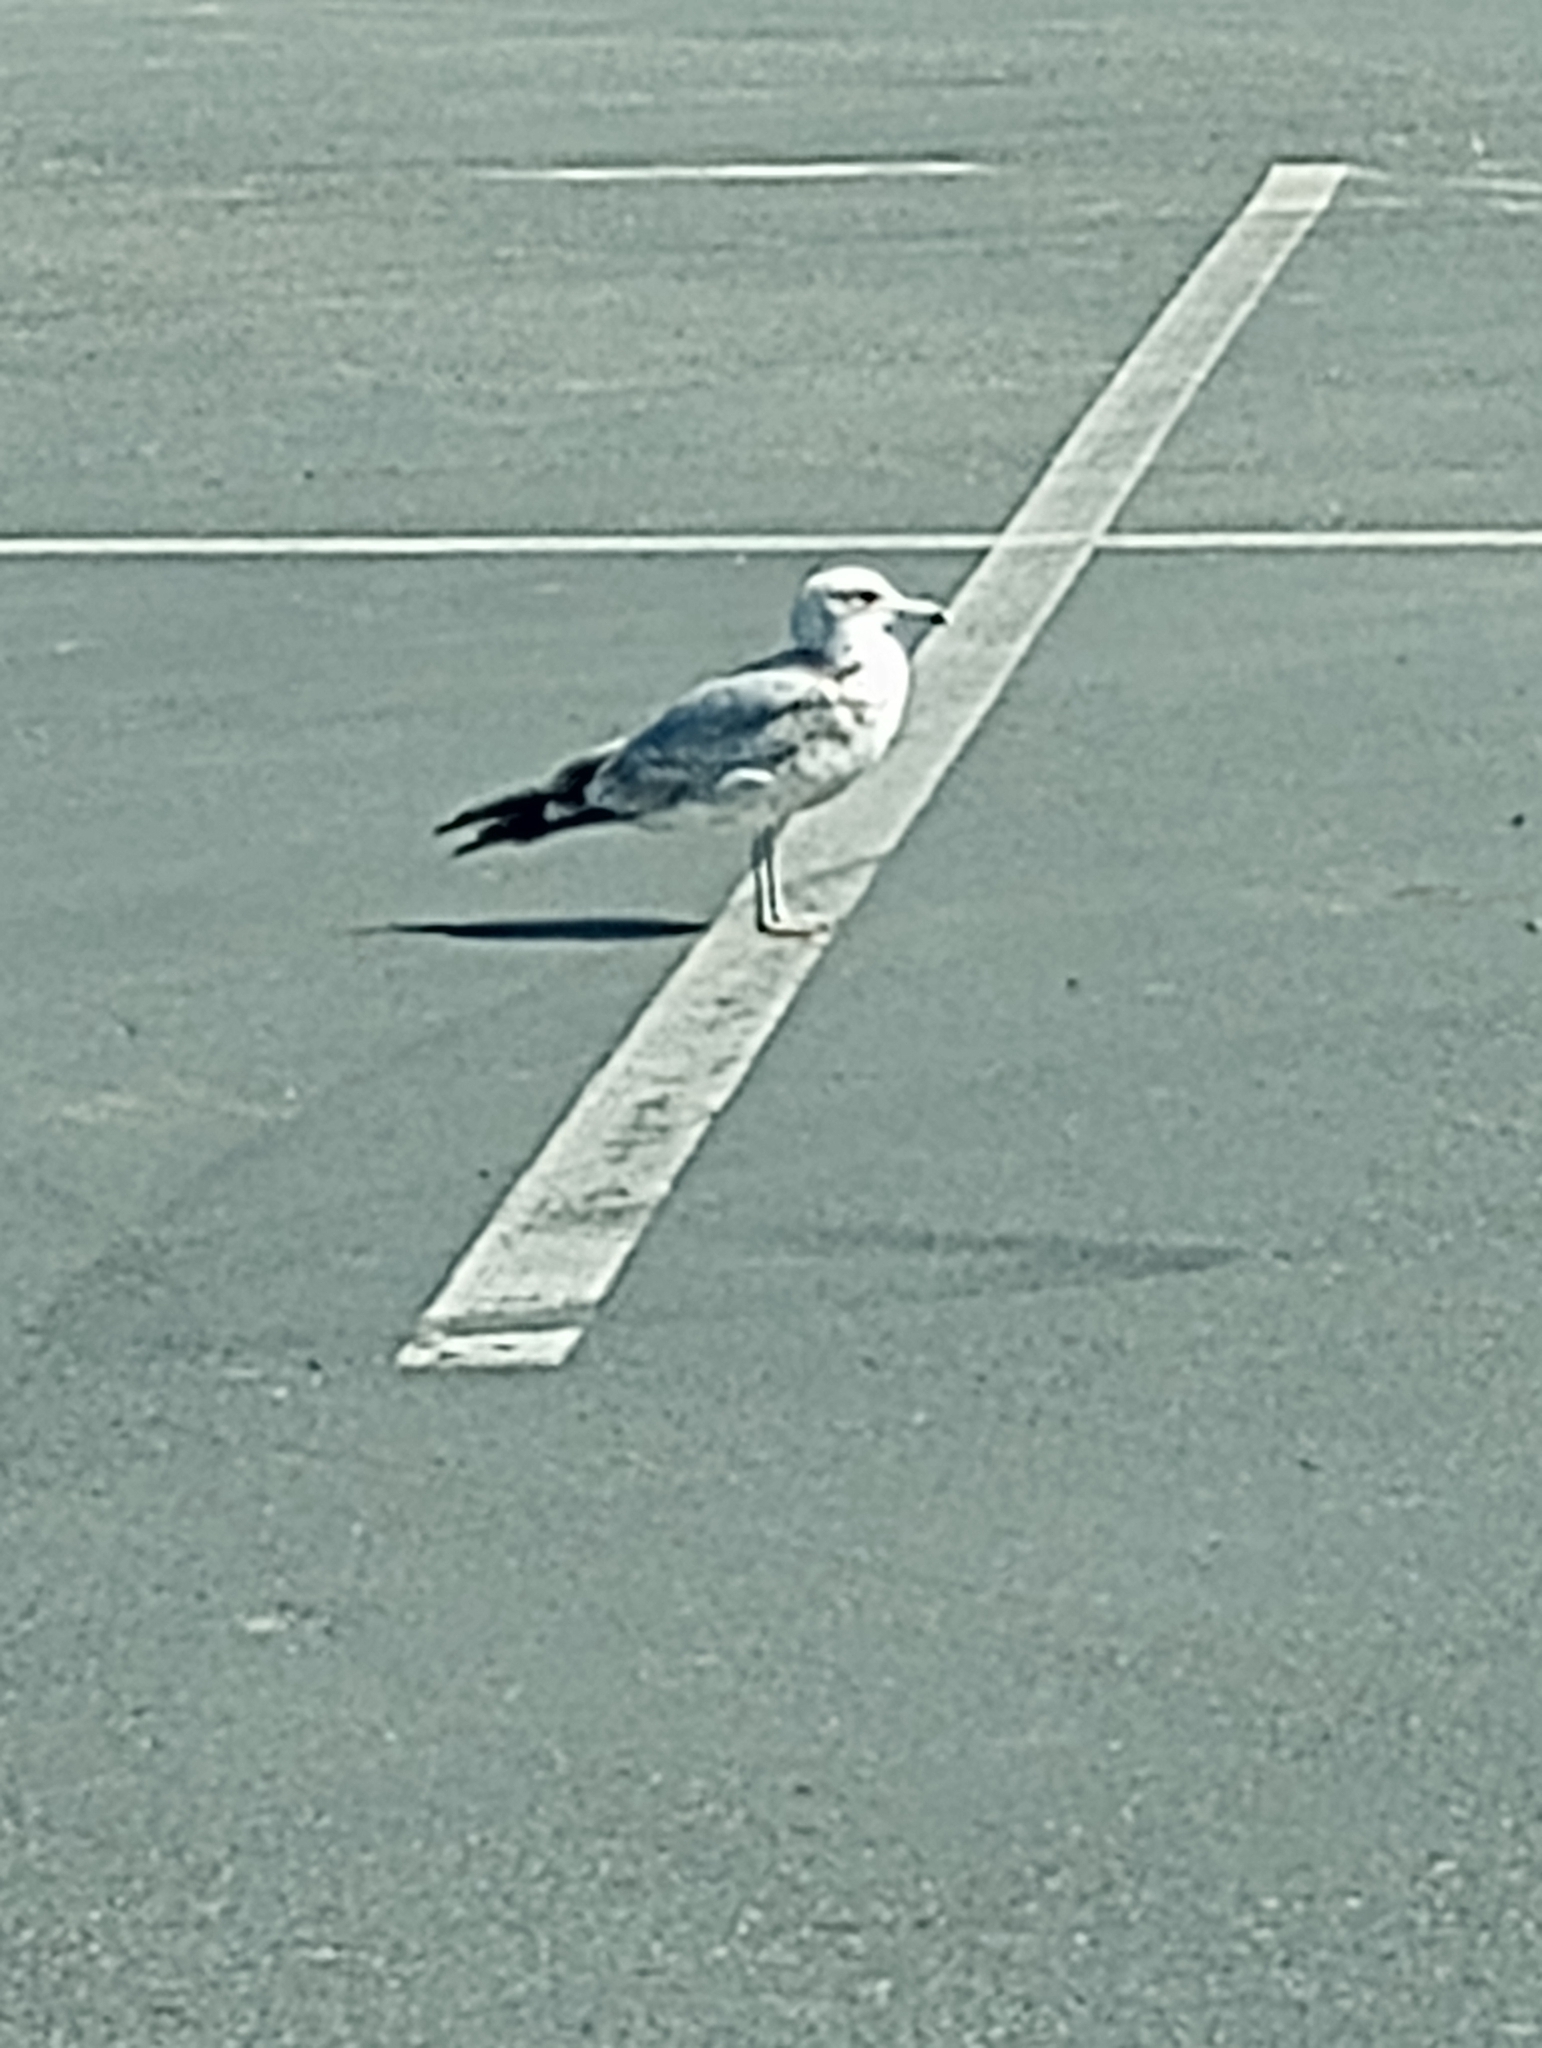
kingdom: Animalia
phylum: Chordata
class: Aves
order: Charadriiformes
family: Laridae
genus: Larus
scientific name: Larus californicus
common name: California gull
